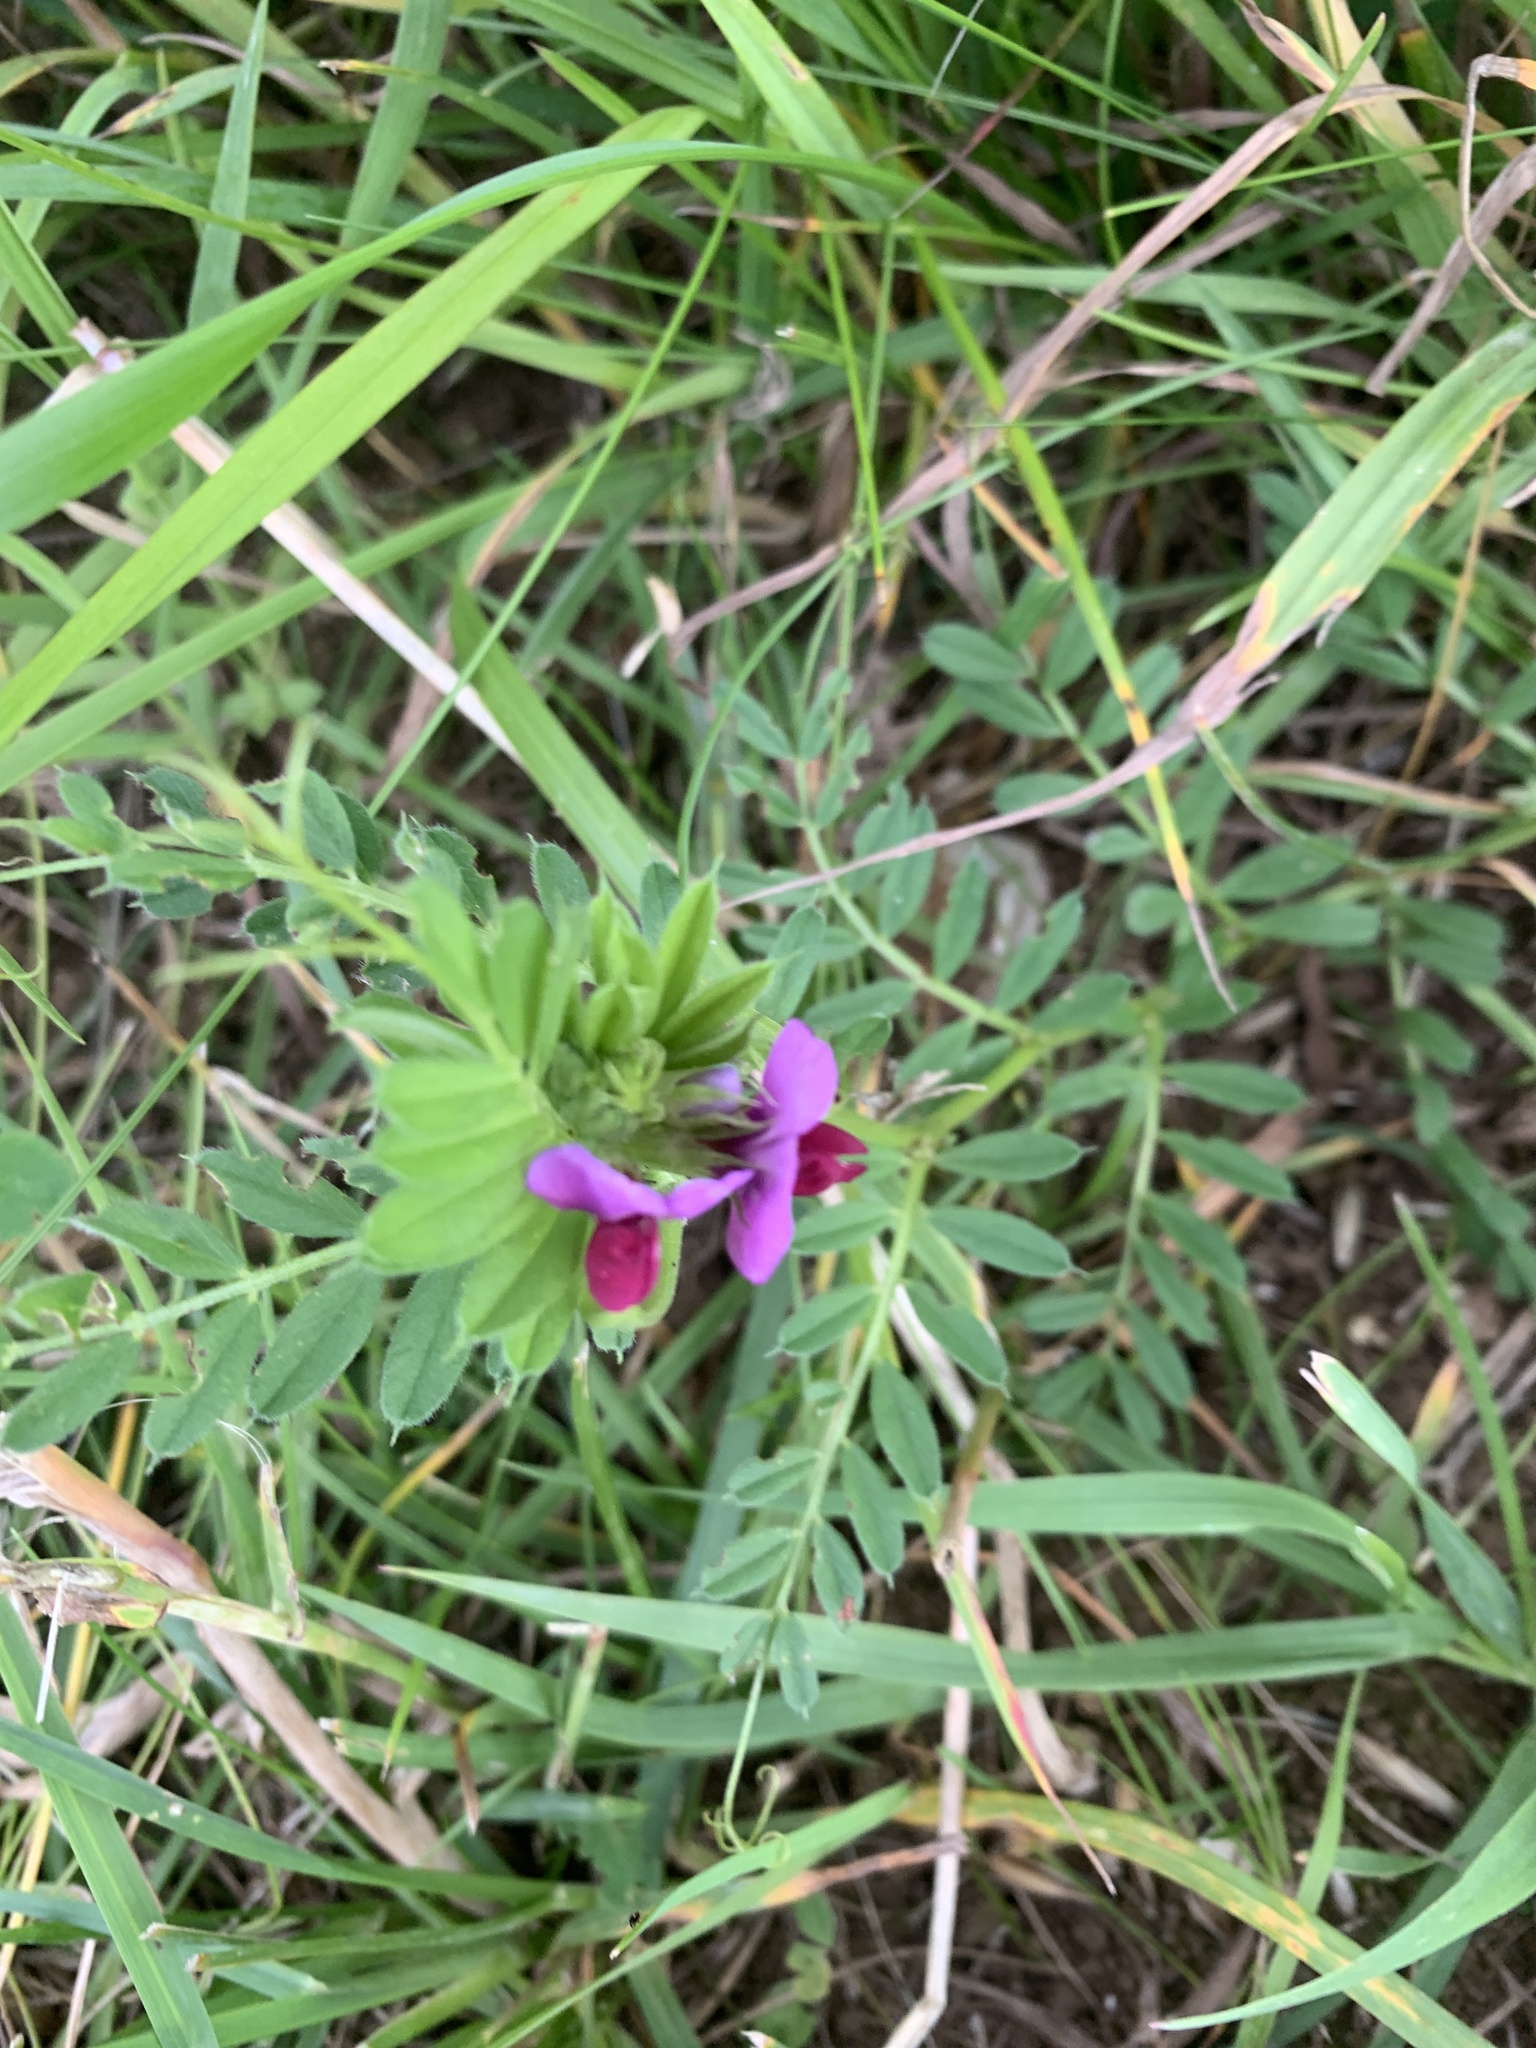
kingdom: Plantae
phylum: Tracheophyta
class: Magnoliopsida
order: Fabales
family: Fabaceae
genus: Vicia
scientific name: Vicia sativa
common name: Garden vetch
